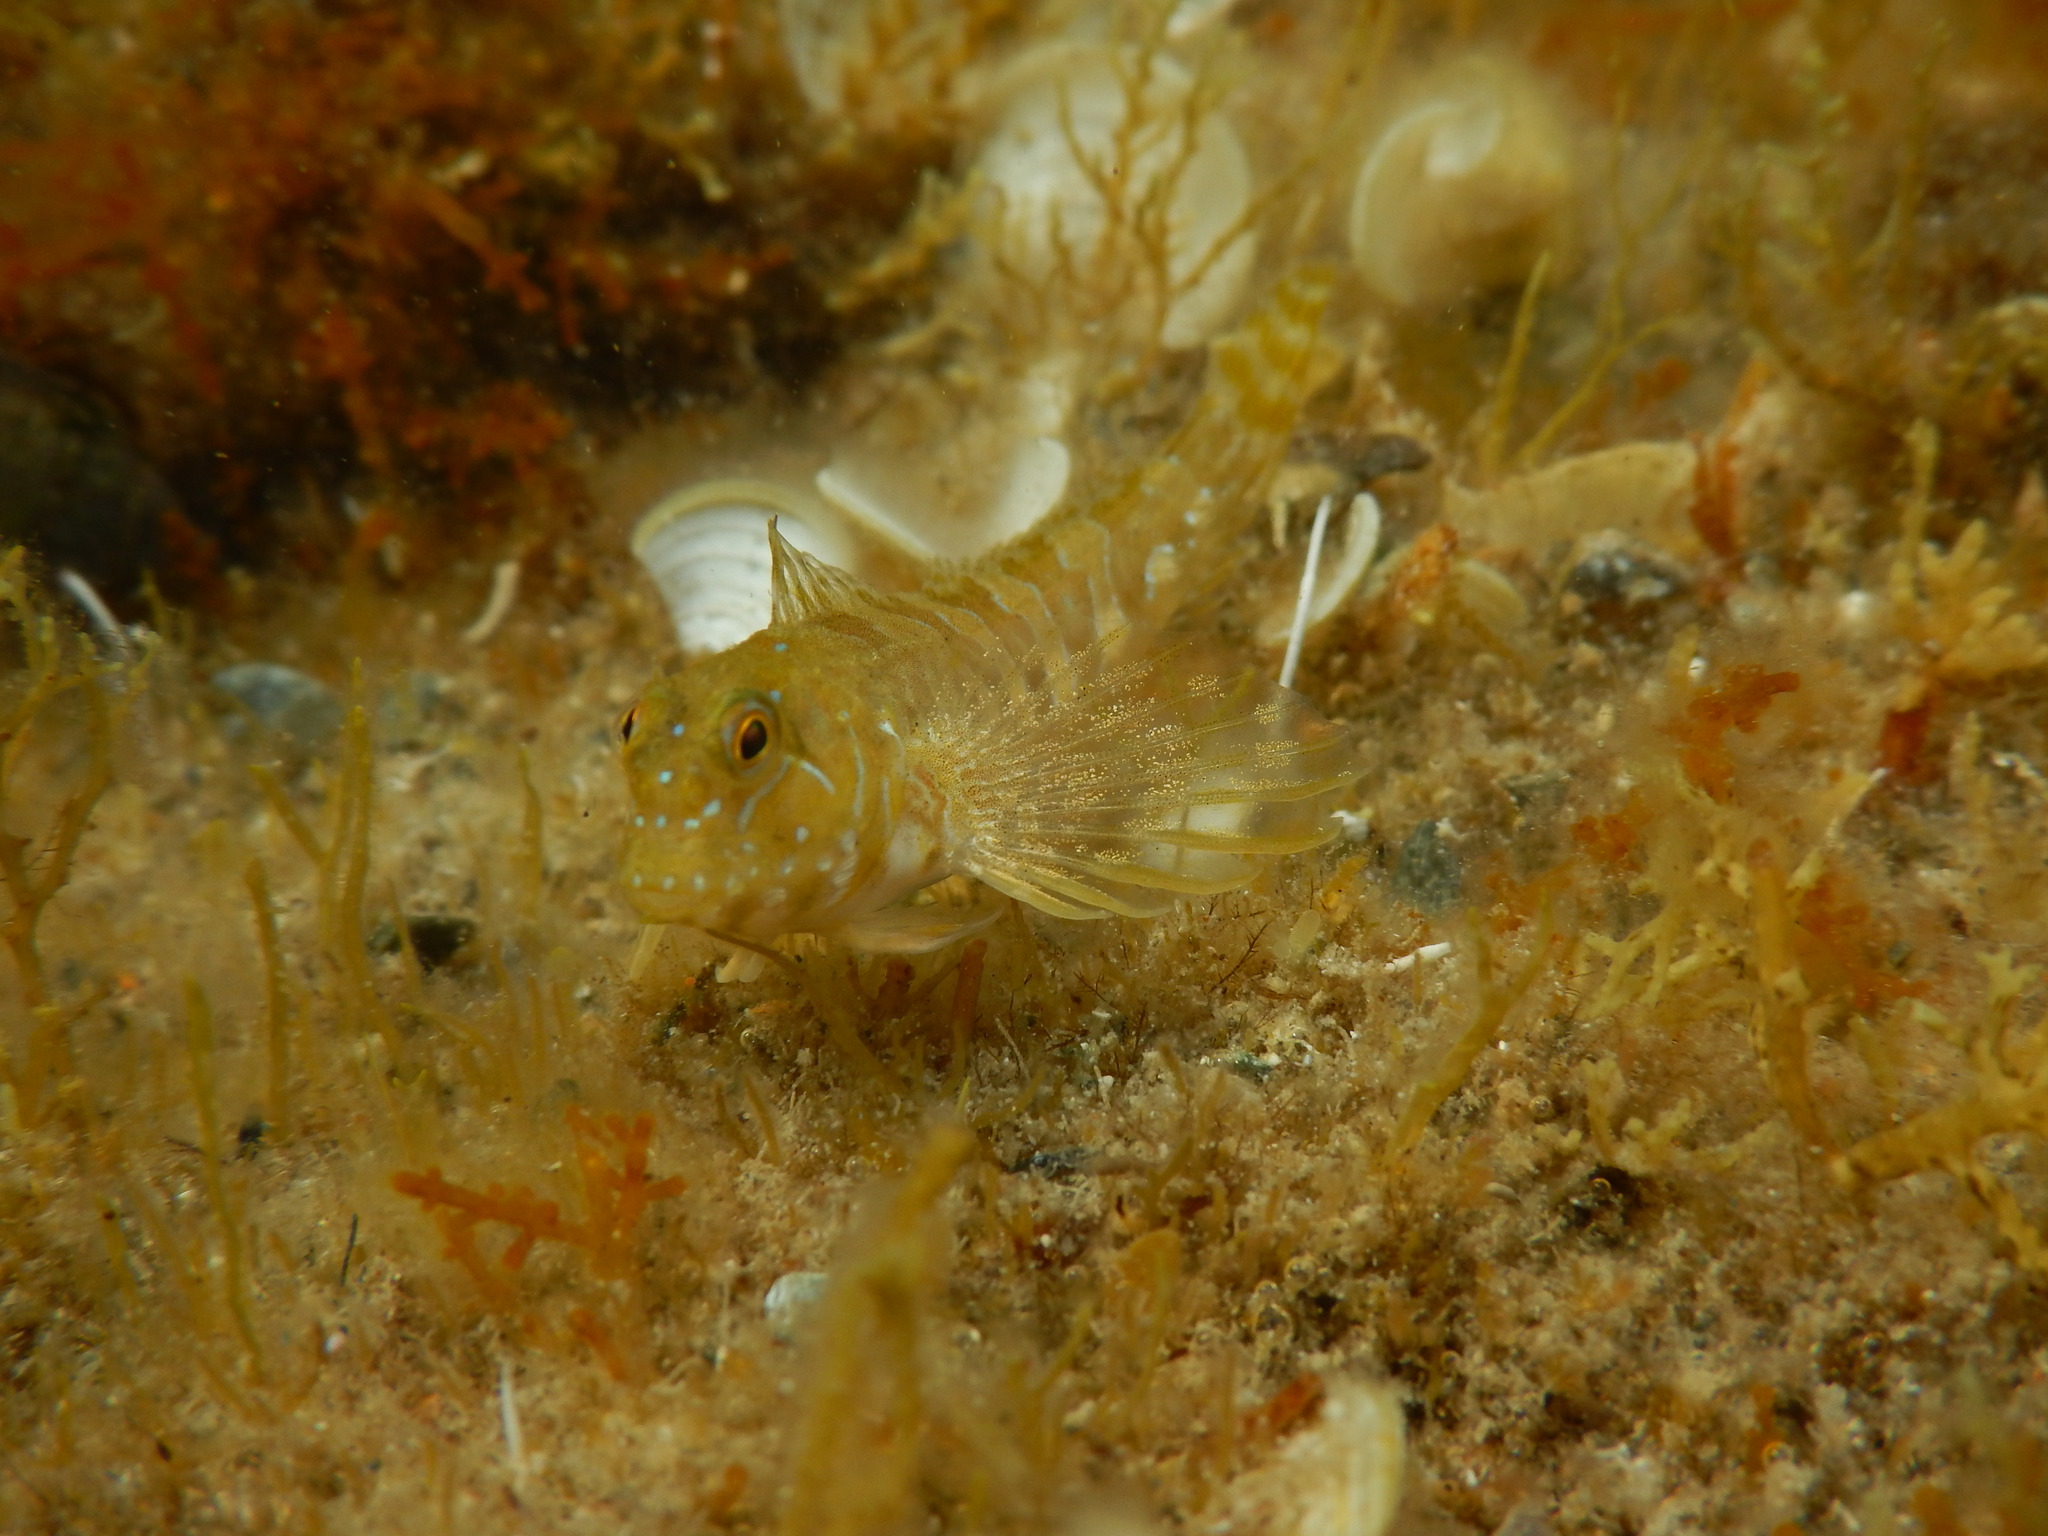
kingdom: Animalia
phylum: Chordata
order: Perciformes
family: Blenniidae
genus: Aidablennius
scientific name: Aidablennius sphynx
